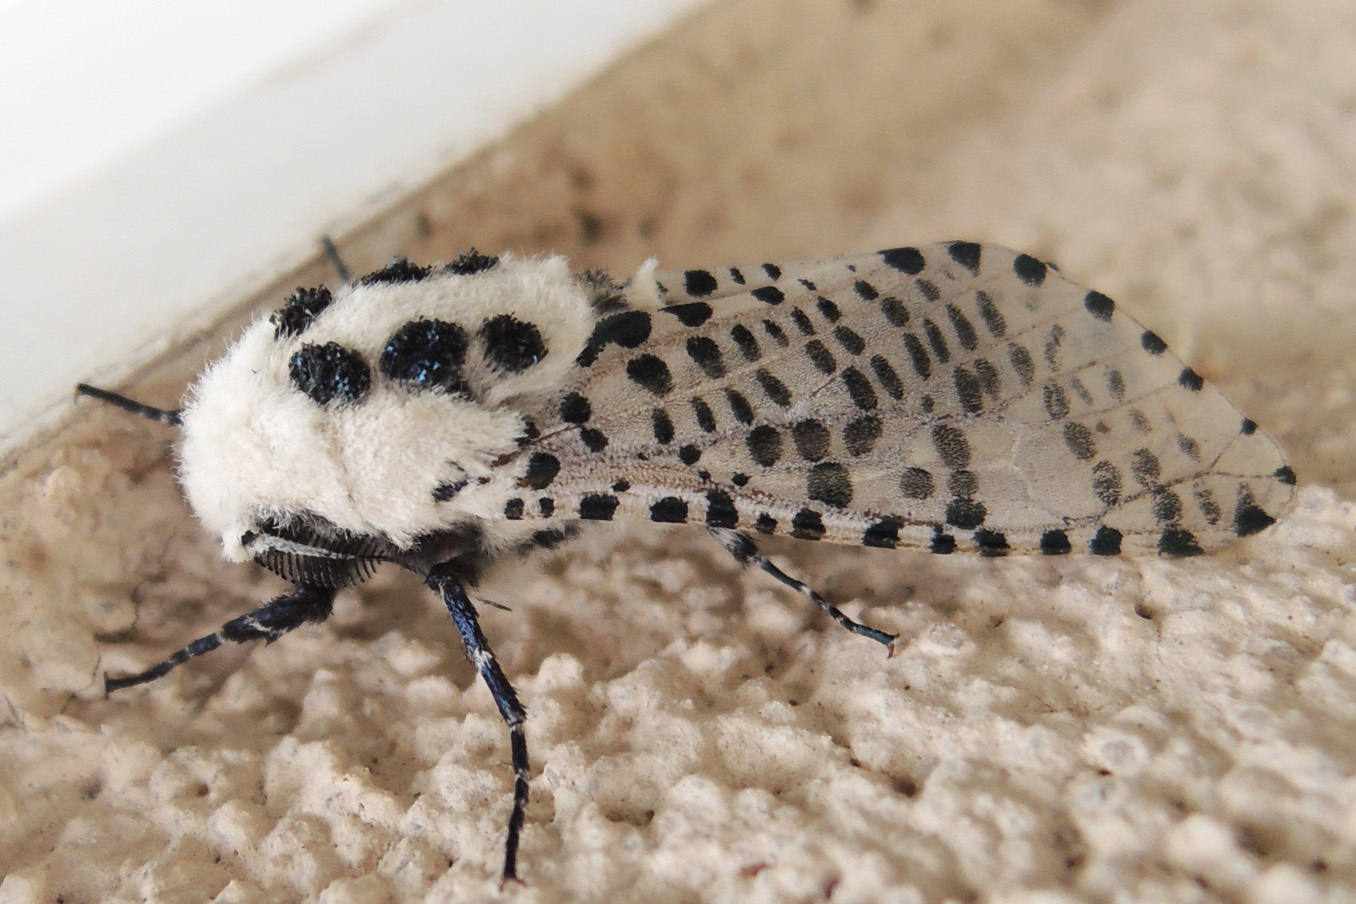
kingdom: Animalia
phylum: Arthropoda
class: Insecta
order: Lepidoptera
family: Cossidae
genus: Zeuzera
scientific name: Zeuzera pyrina
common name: Leopard moth
